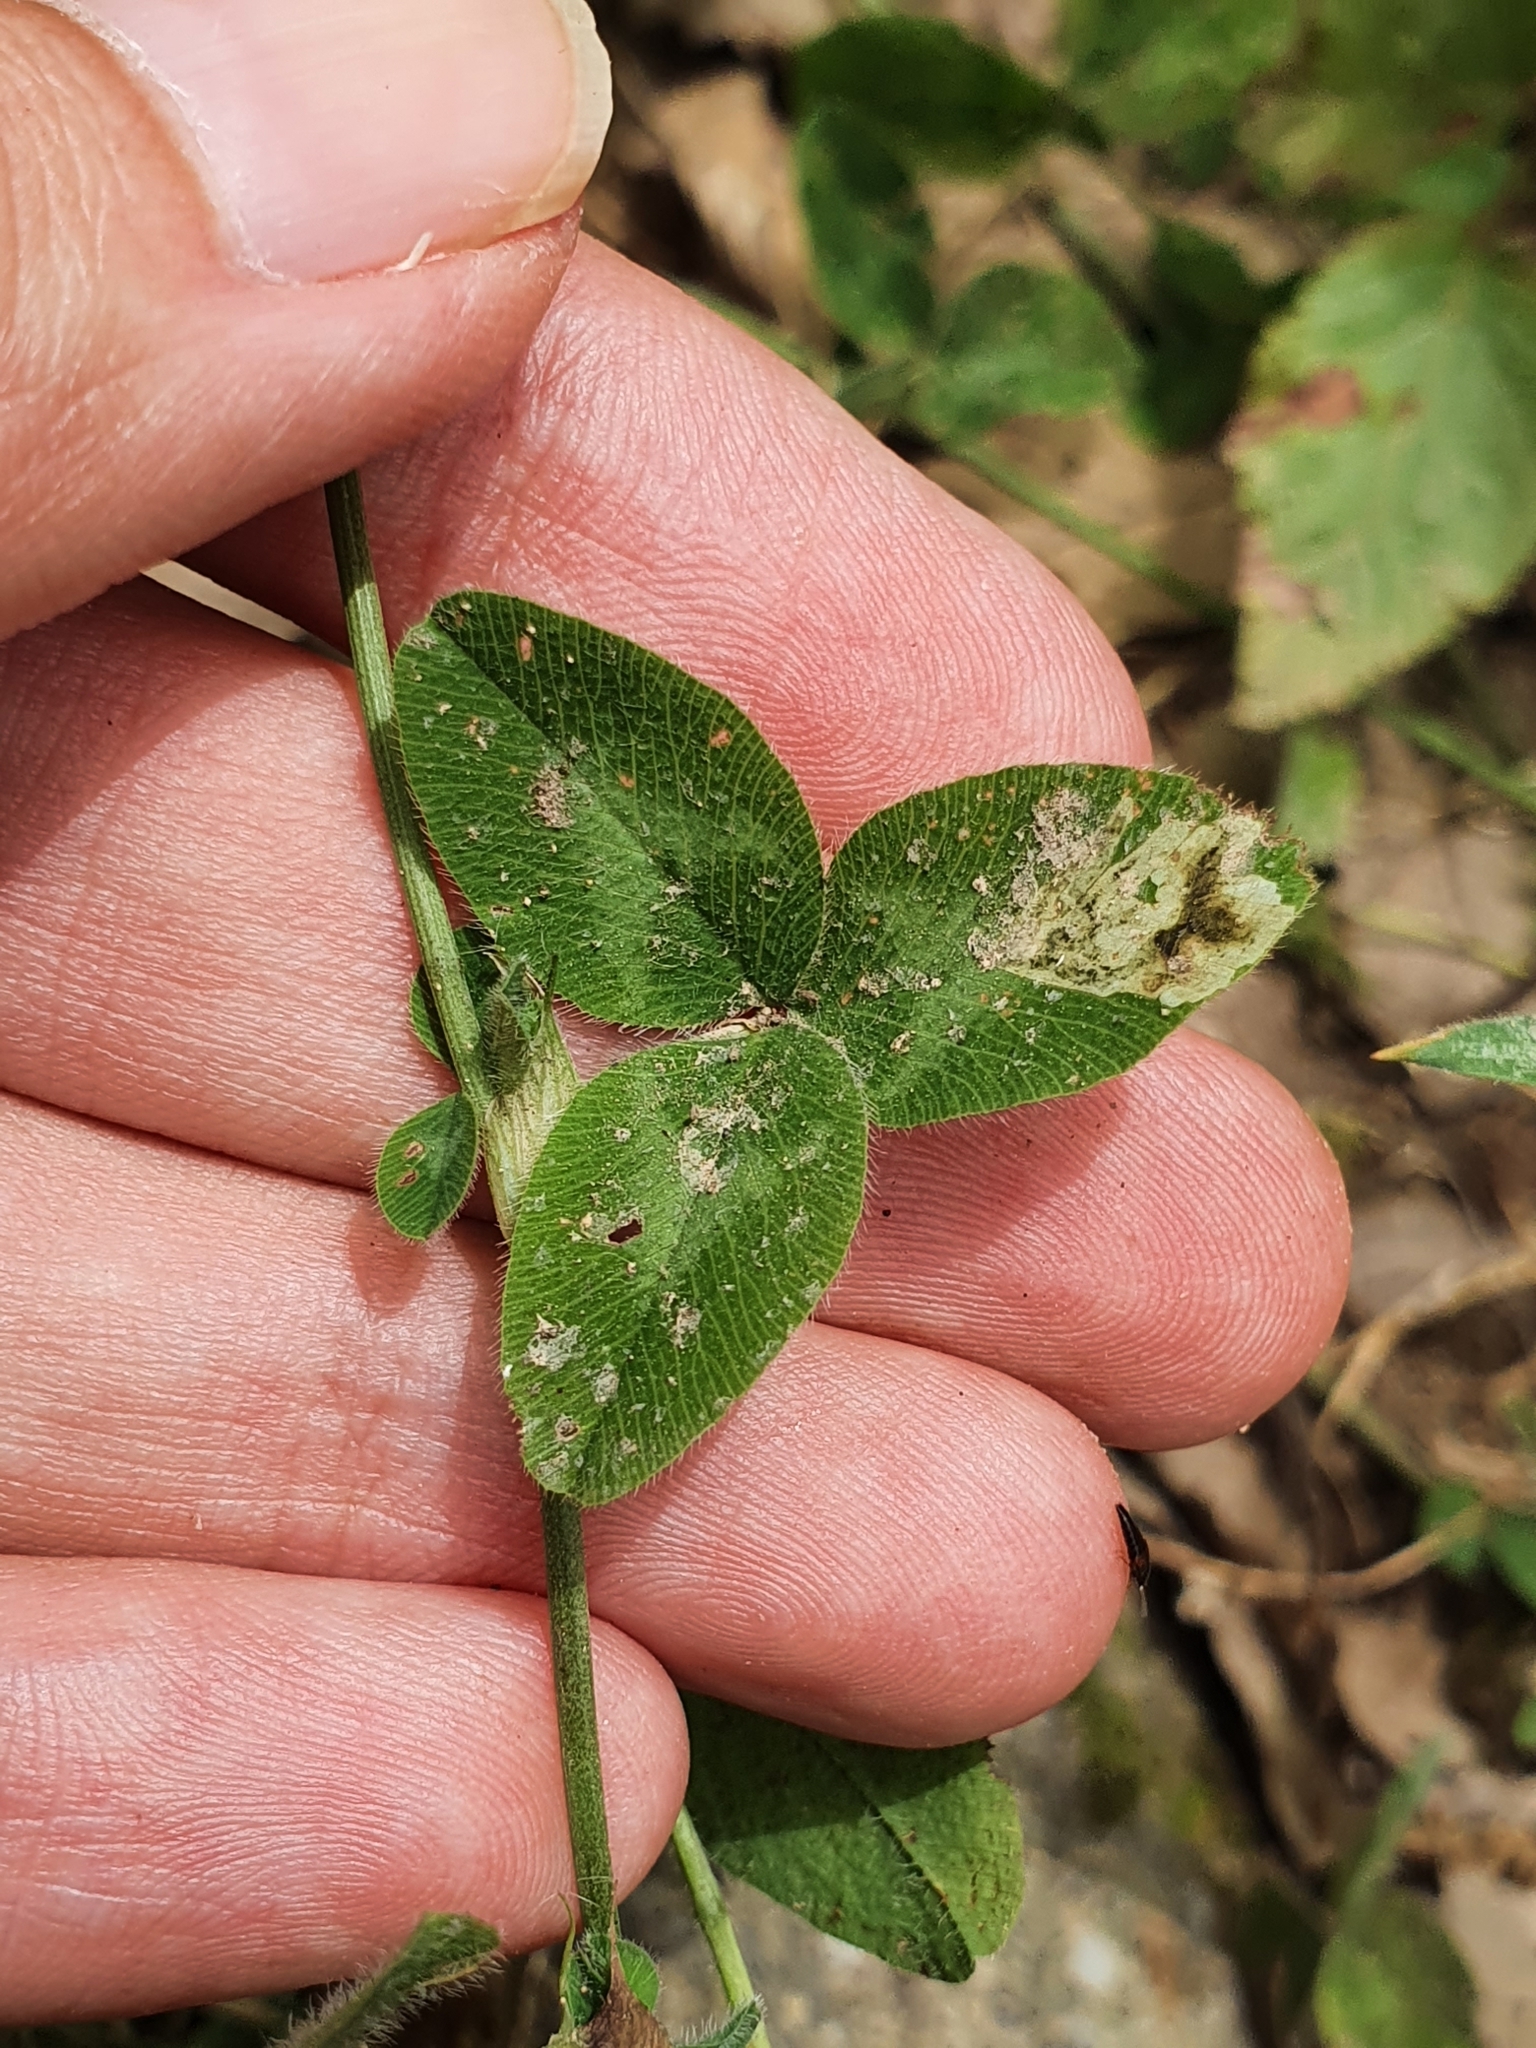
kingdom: Plantae
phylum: Tracheophyta
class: Magnoliopsida
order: Fabales
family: Fabaceae
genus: Trifolium
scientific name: Trifolium pratense
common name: Red clover
